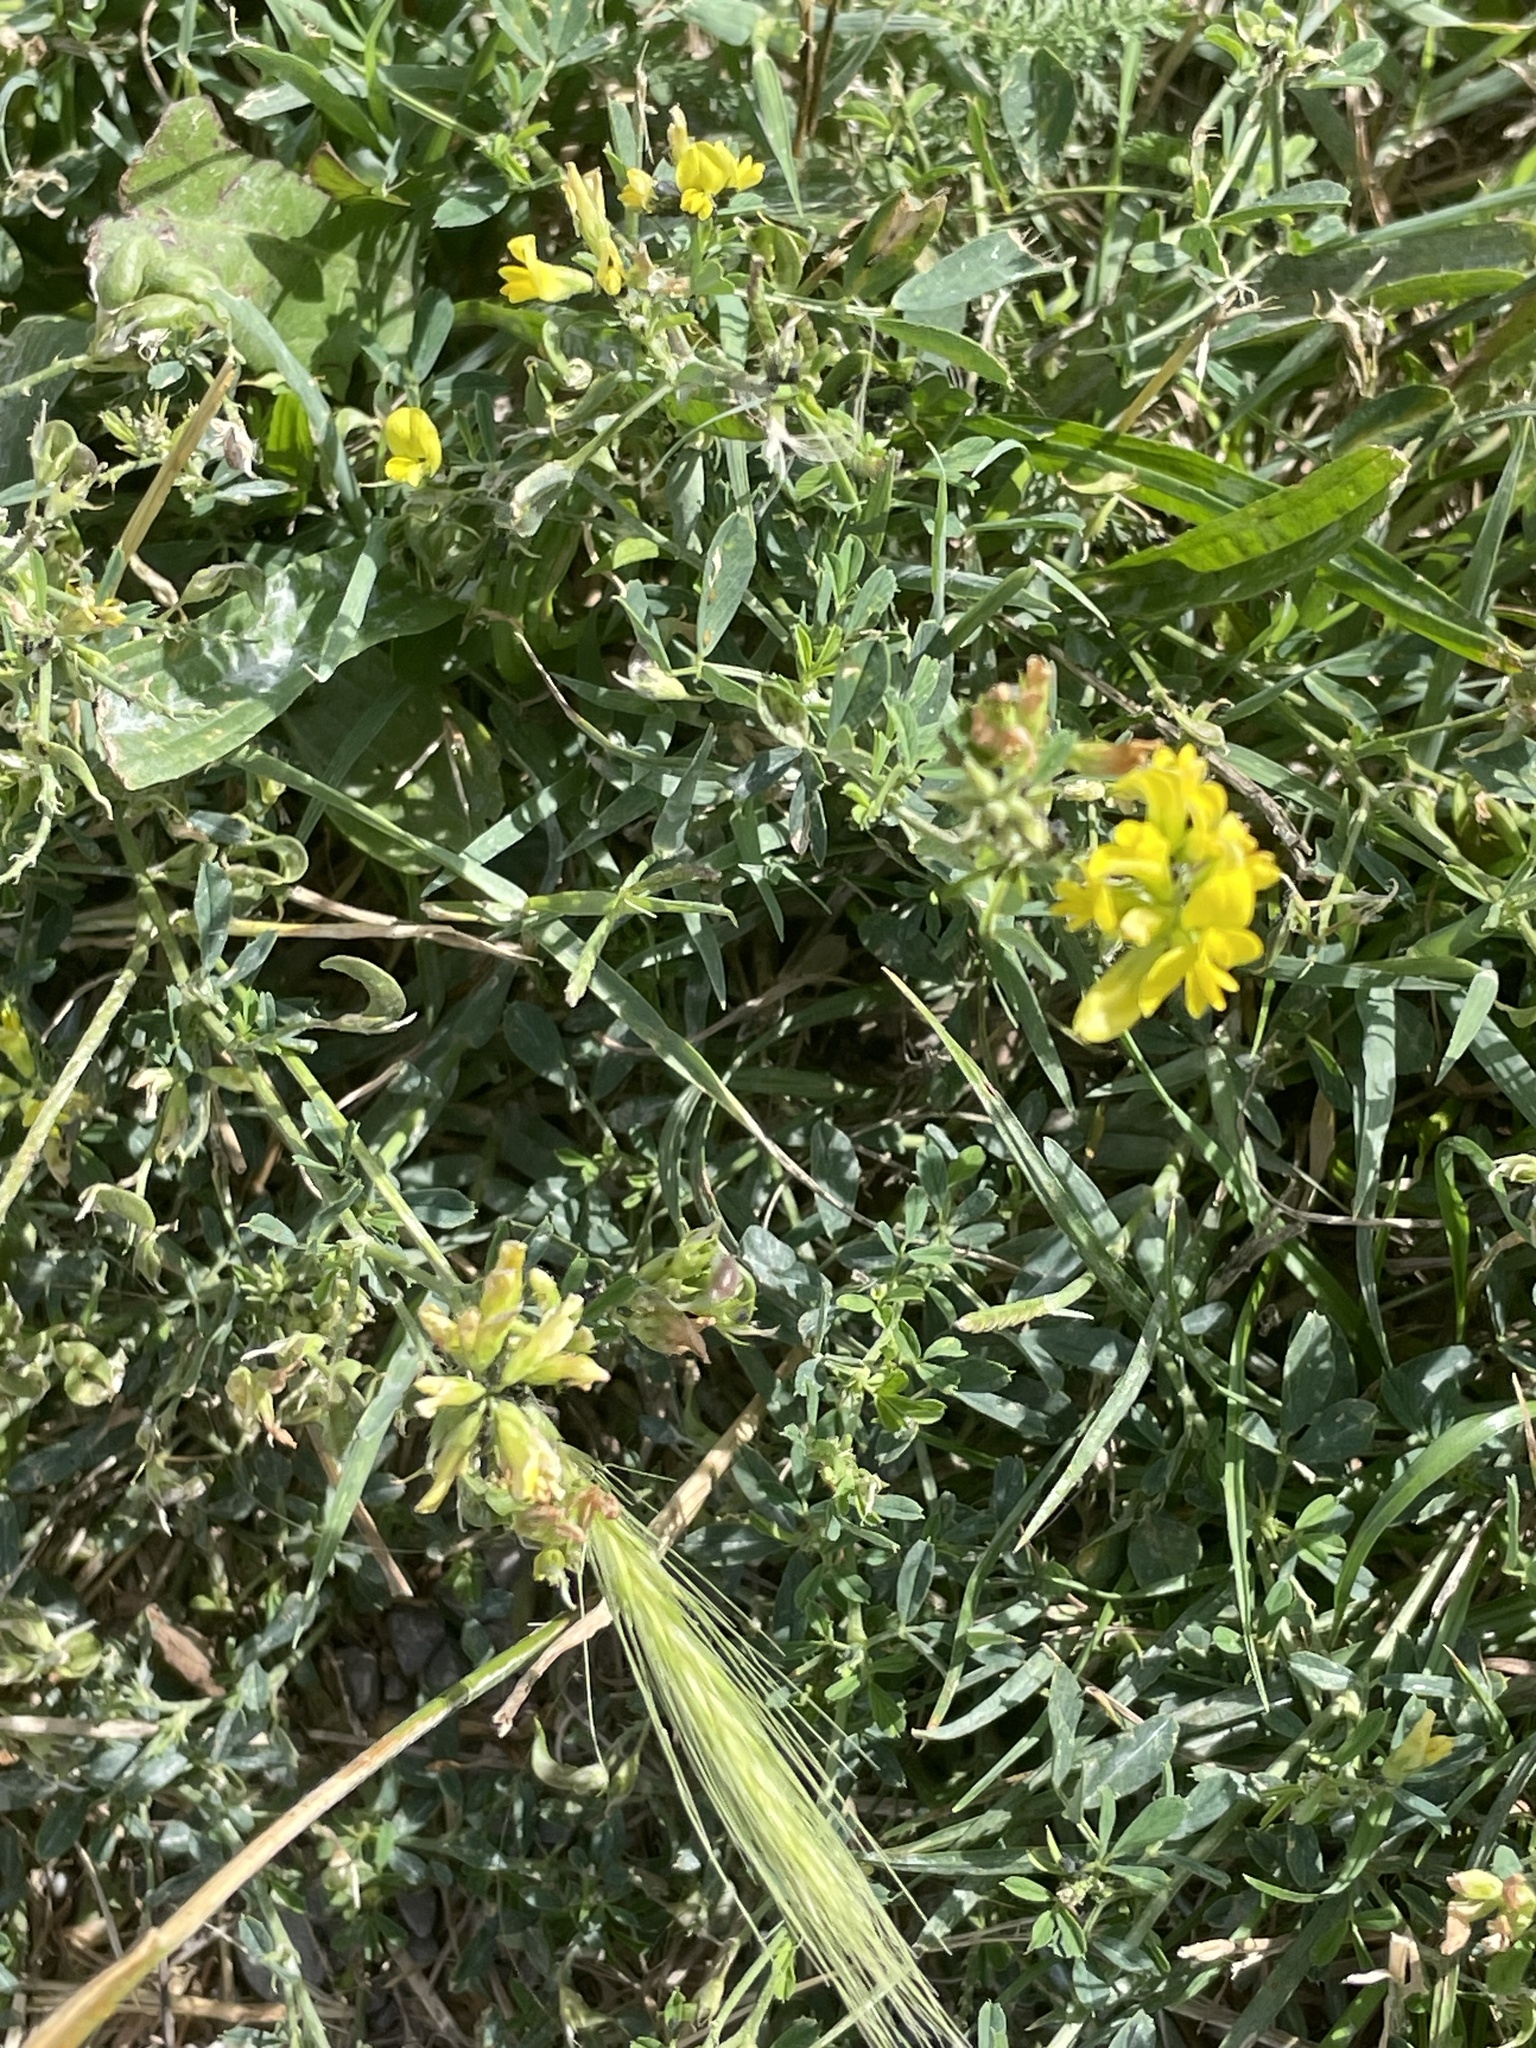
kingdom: Plantae
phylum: Tracheophyta
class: Magnoliopsida
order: Fabales
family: Fabaceae
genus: Medicago
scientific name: Medicago falcata
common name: Sickle medick
